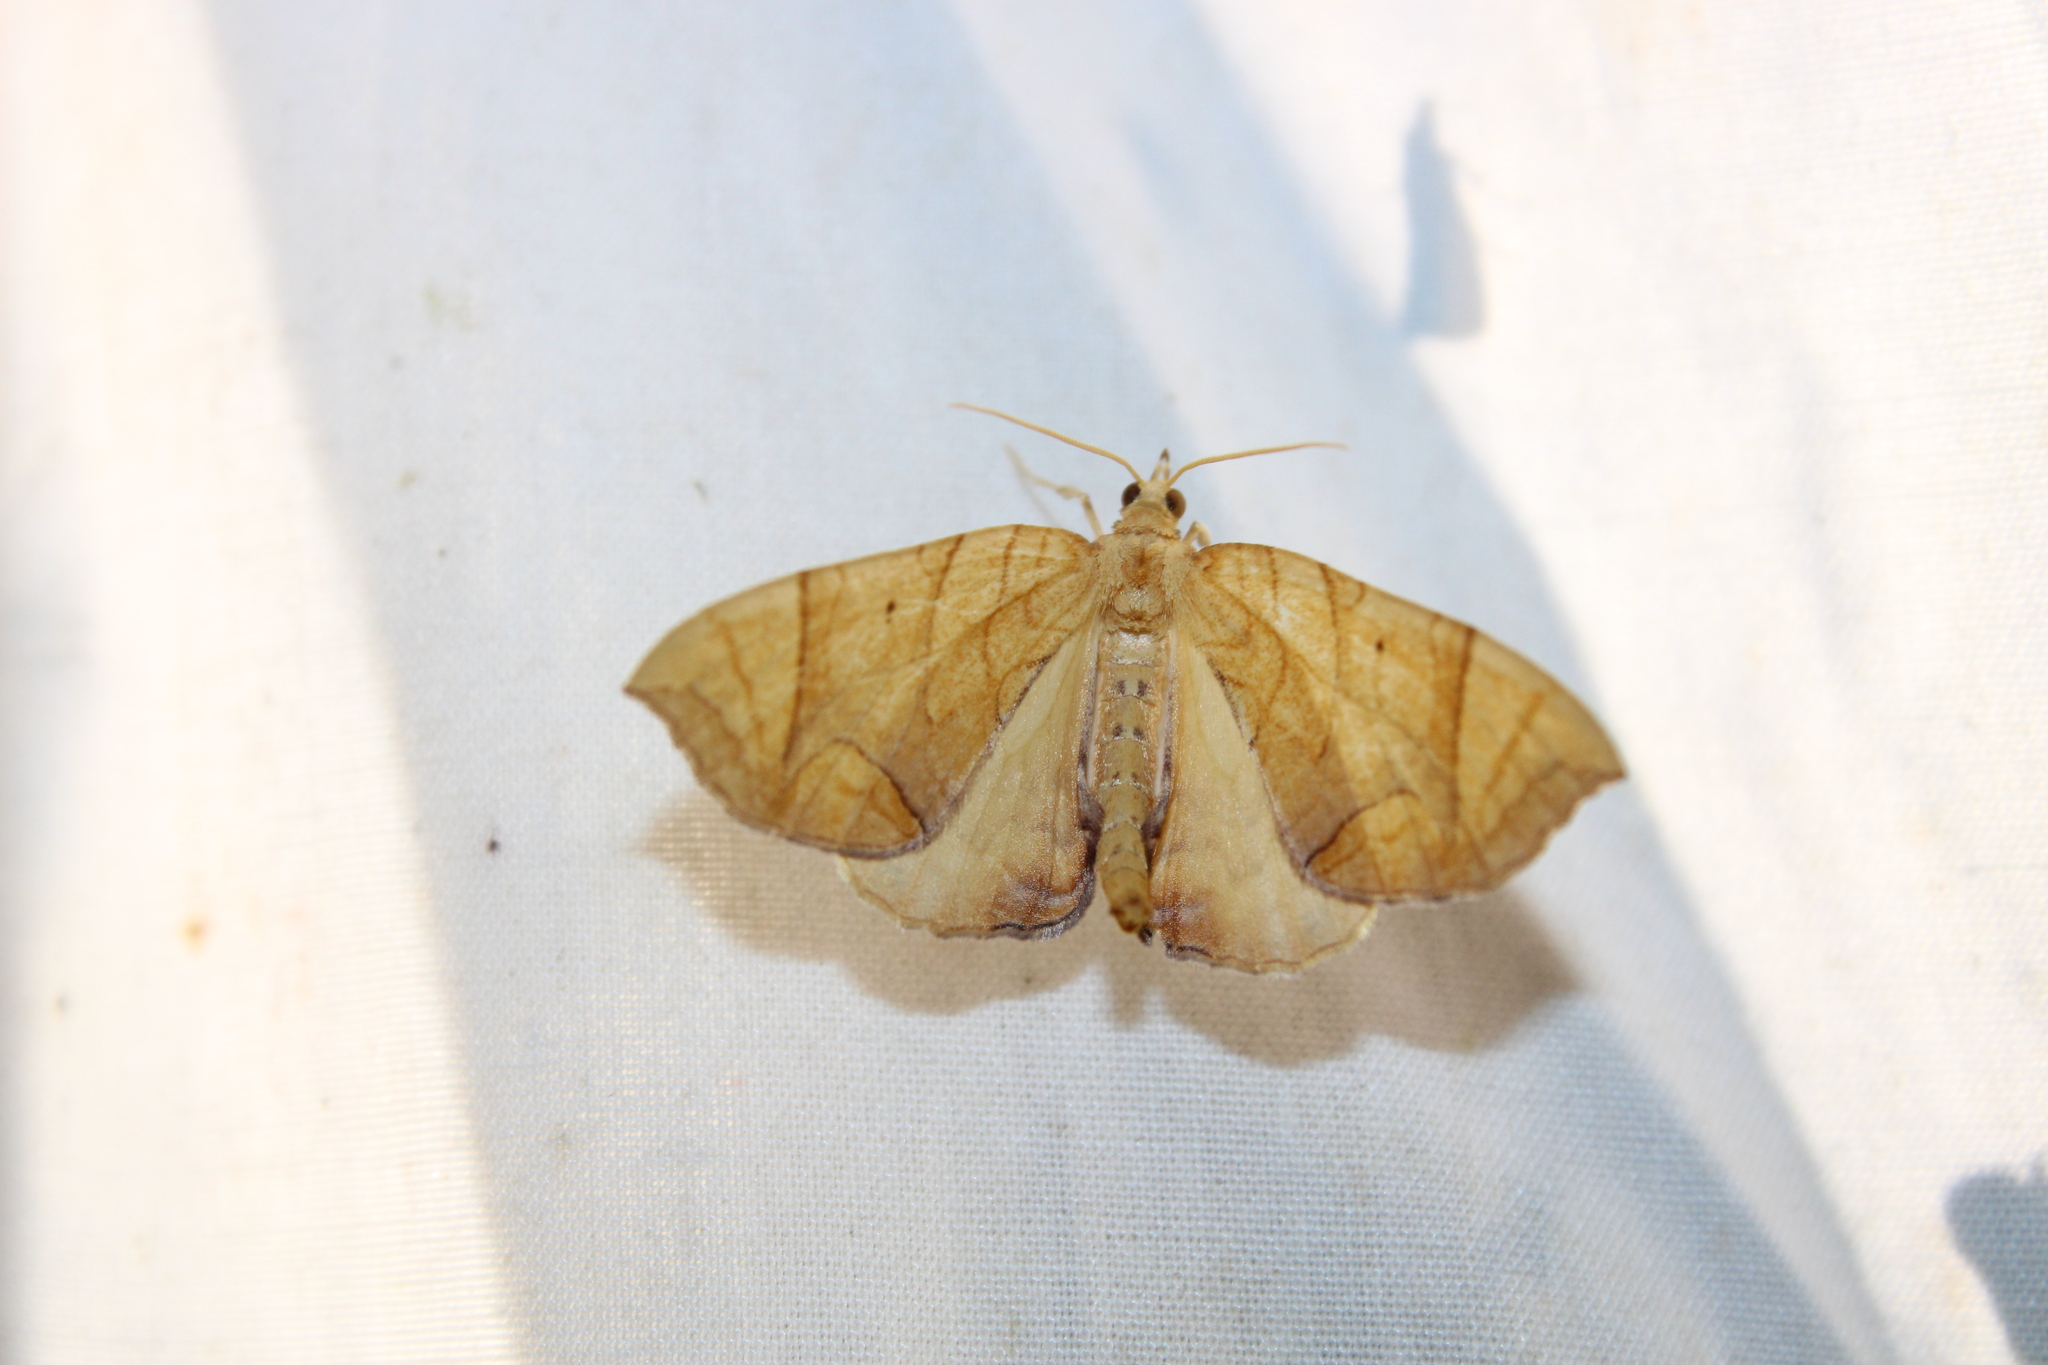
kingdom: Animalia
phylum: Arthropoda
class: Insecta
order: Lepidoptera
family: Geometridae
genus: Eulithis
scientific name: Eulithis
